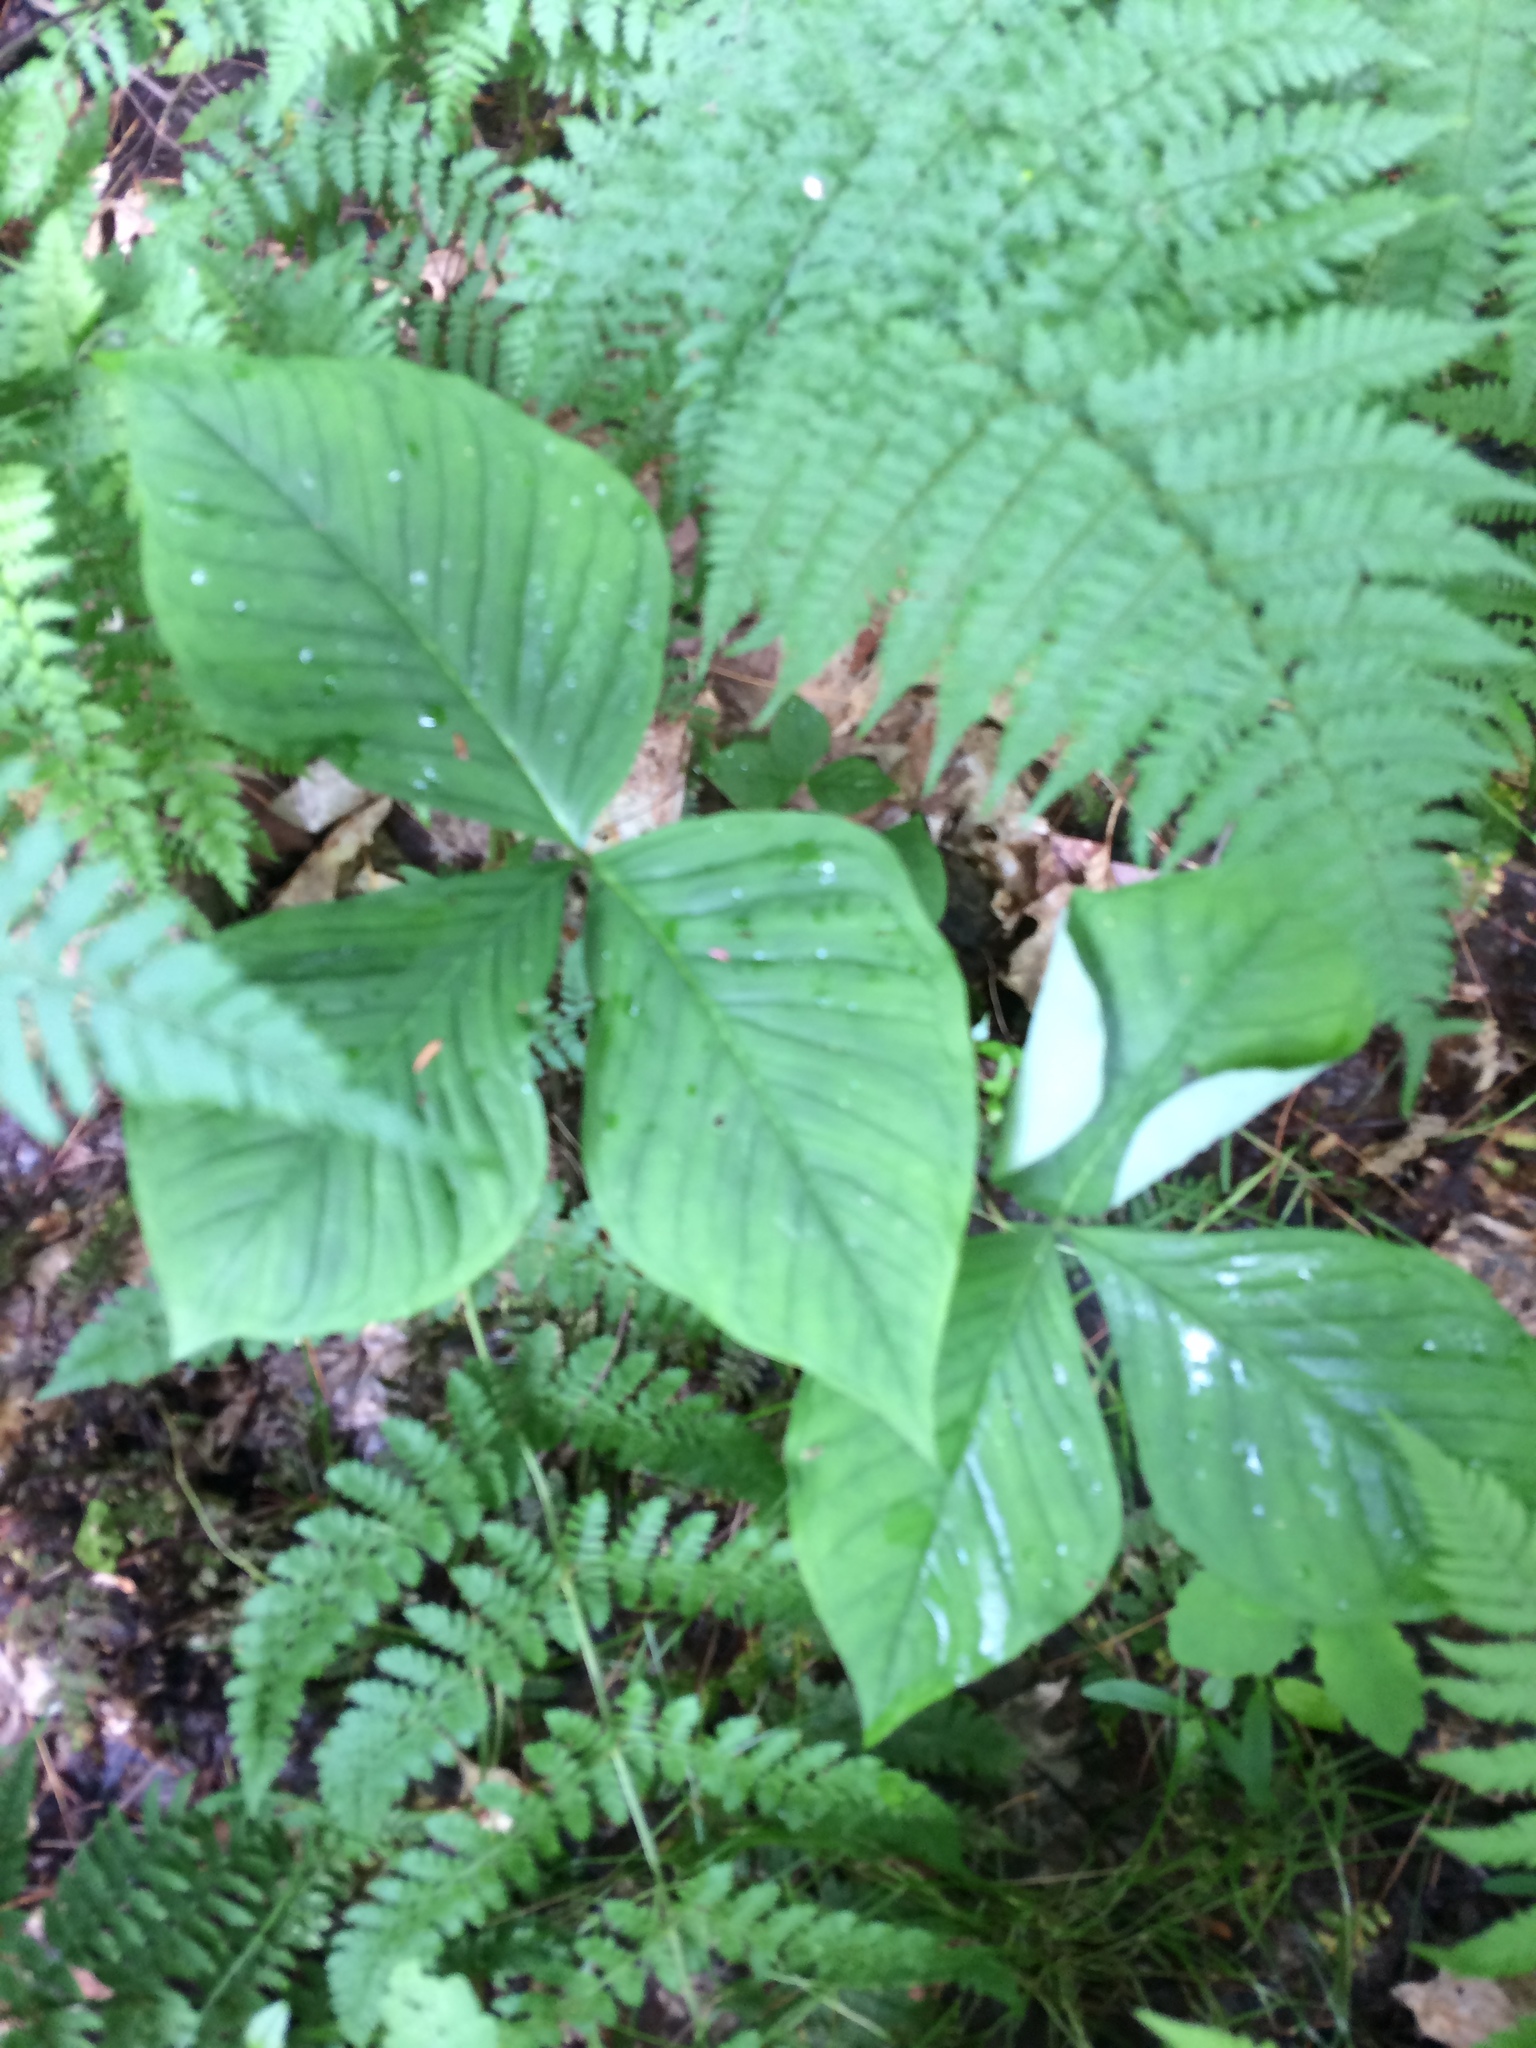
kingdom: Plantae
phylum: Tracheophyta
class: Liliopsida
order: Alismatales
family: Araceae
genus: Arisaema
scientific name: Arisaema triphyllum
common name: Jack-in-the-pulpit
